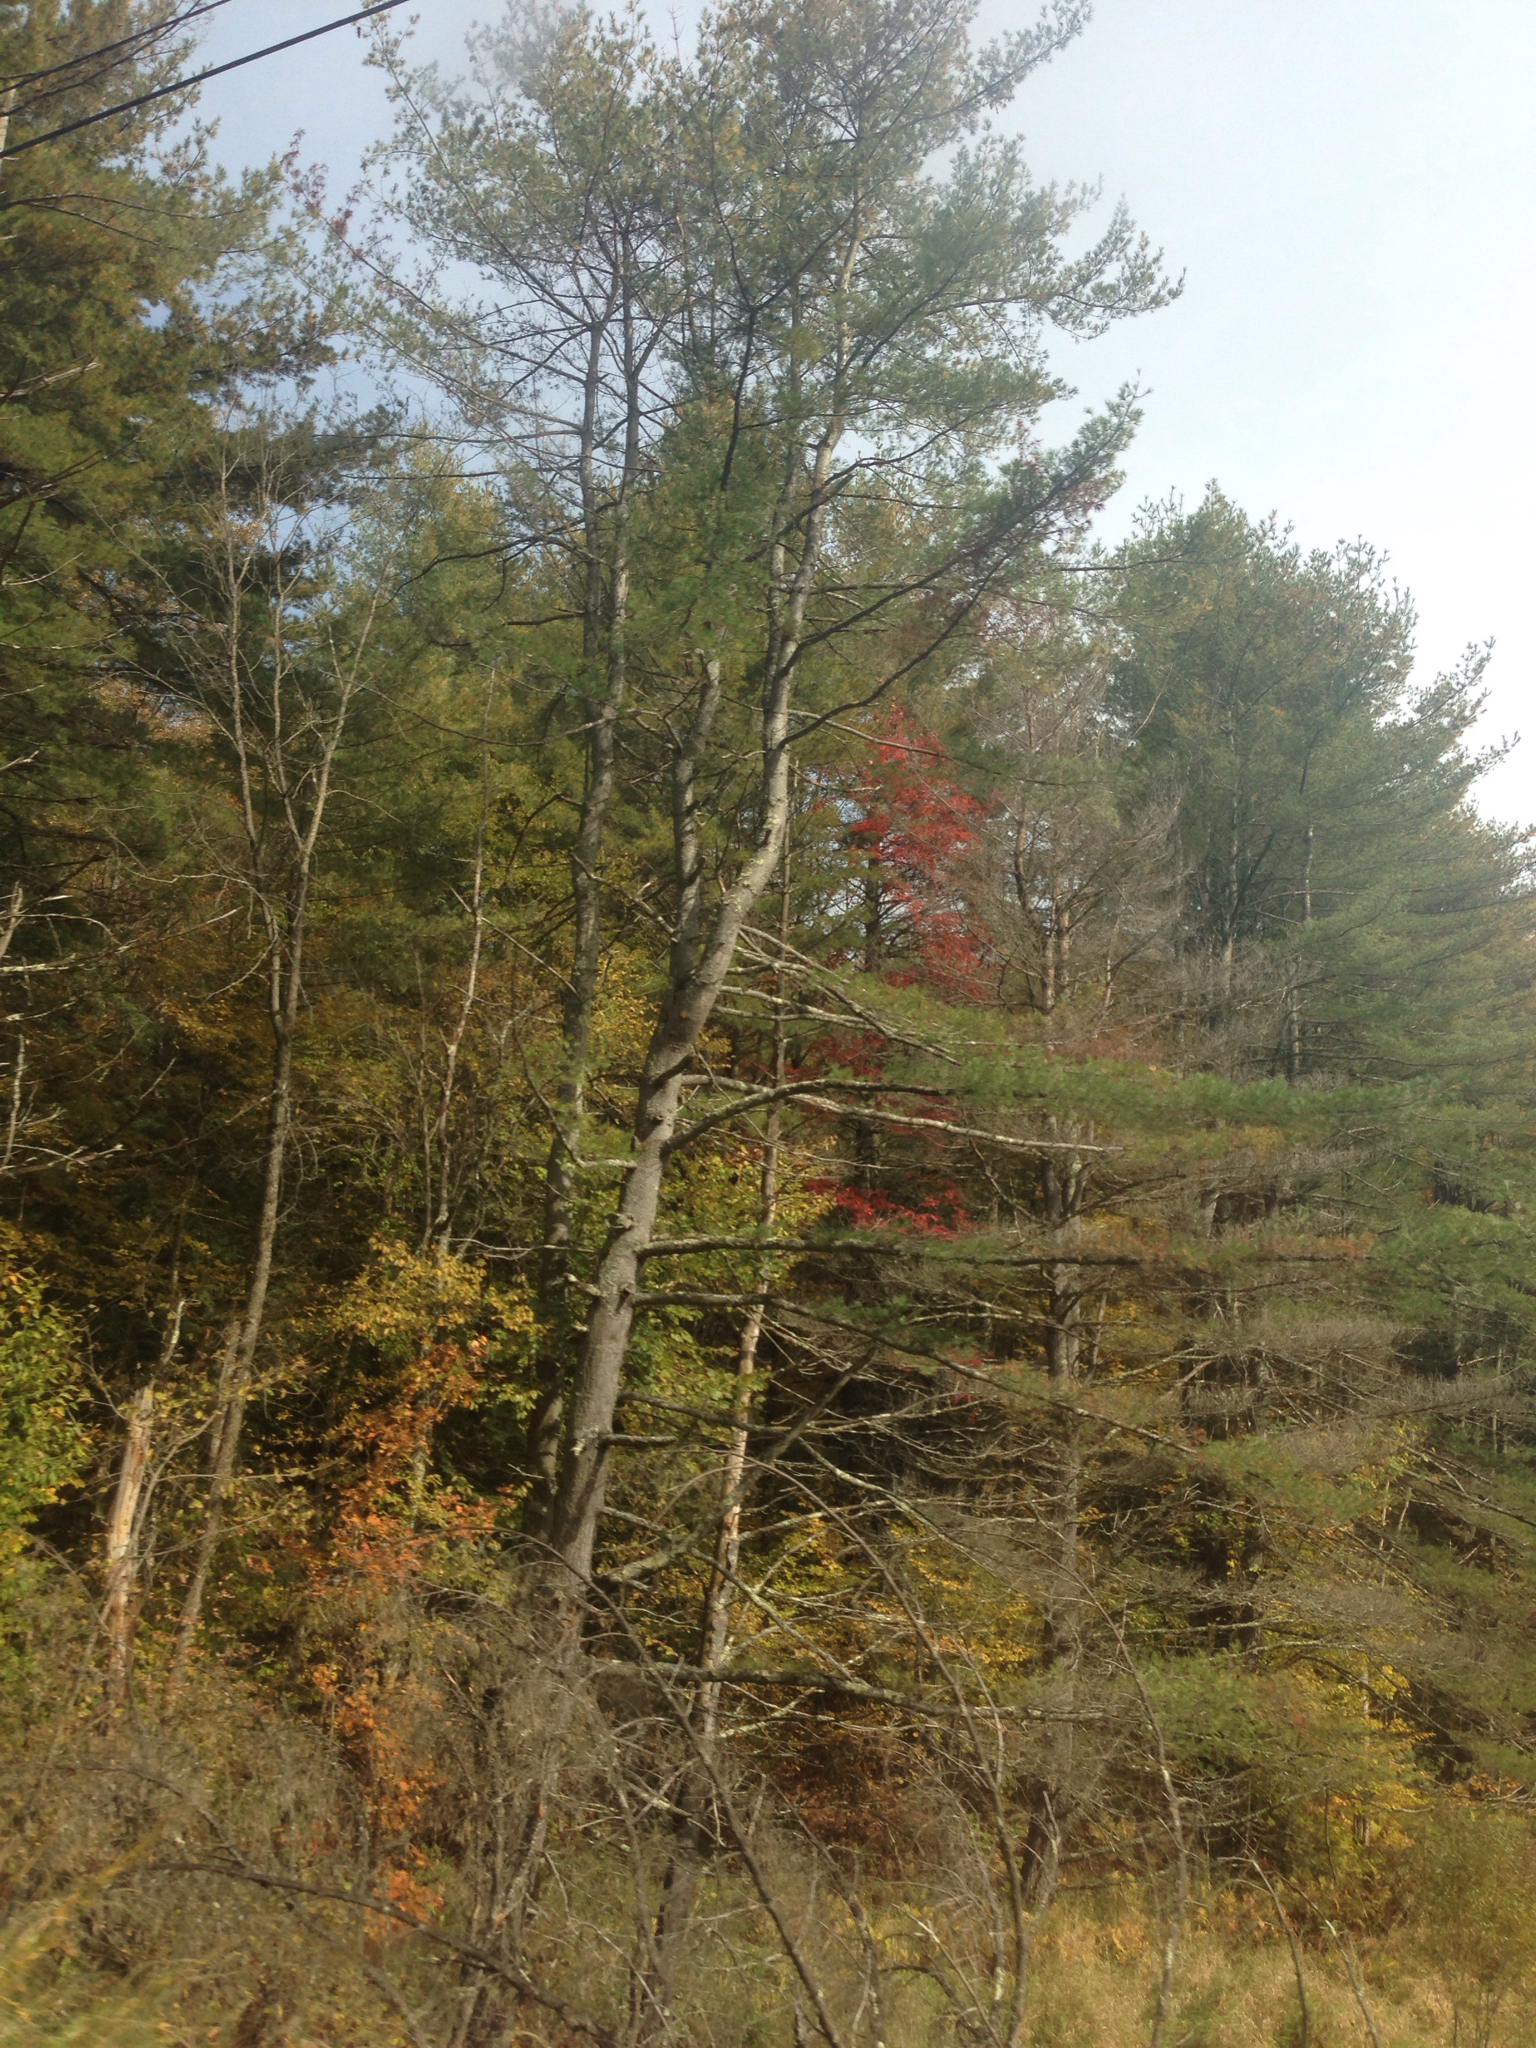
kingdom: Plantae
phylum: Tracheophyta
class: Pinopsida
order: Pinales
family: Pinaceae
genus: Pinus
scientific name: Pinus strobus
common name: Weymouth pine
